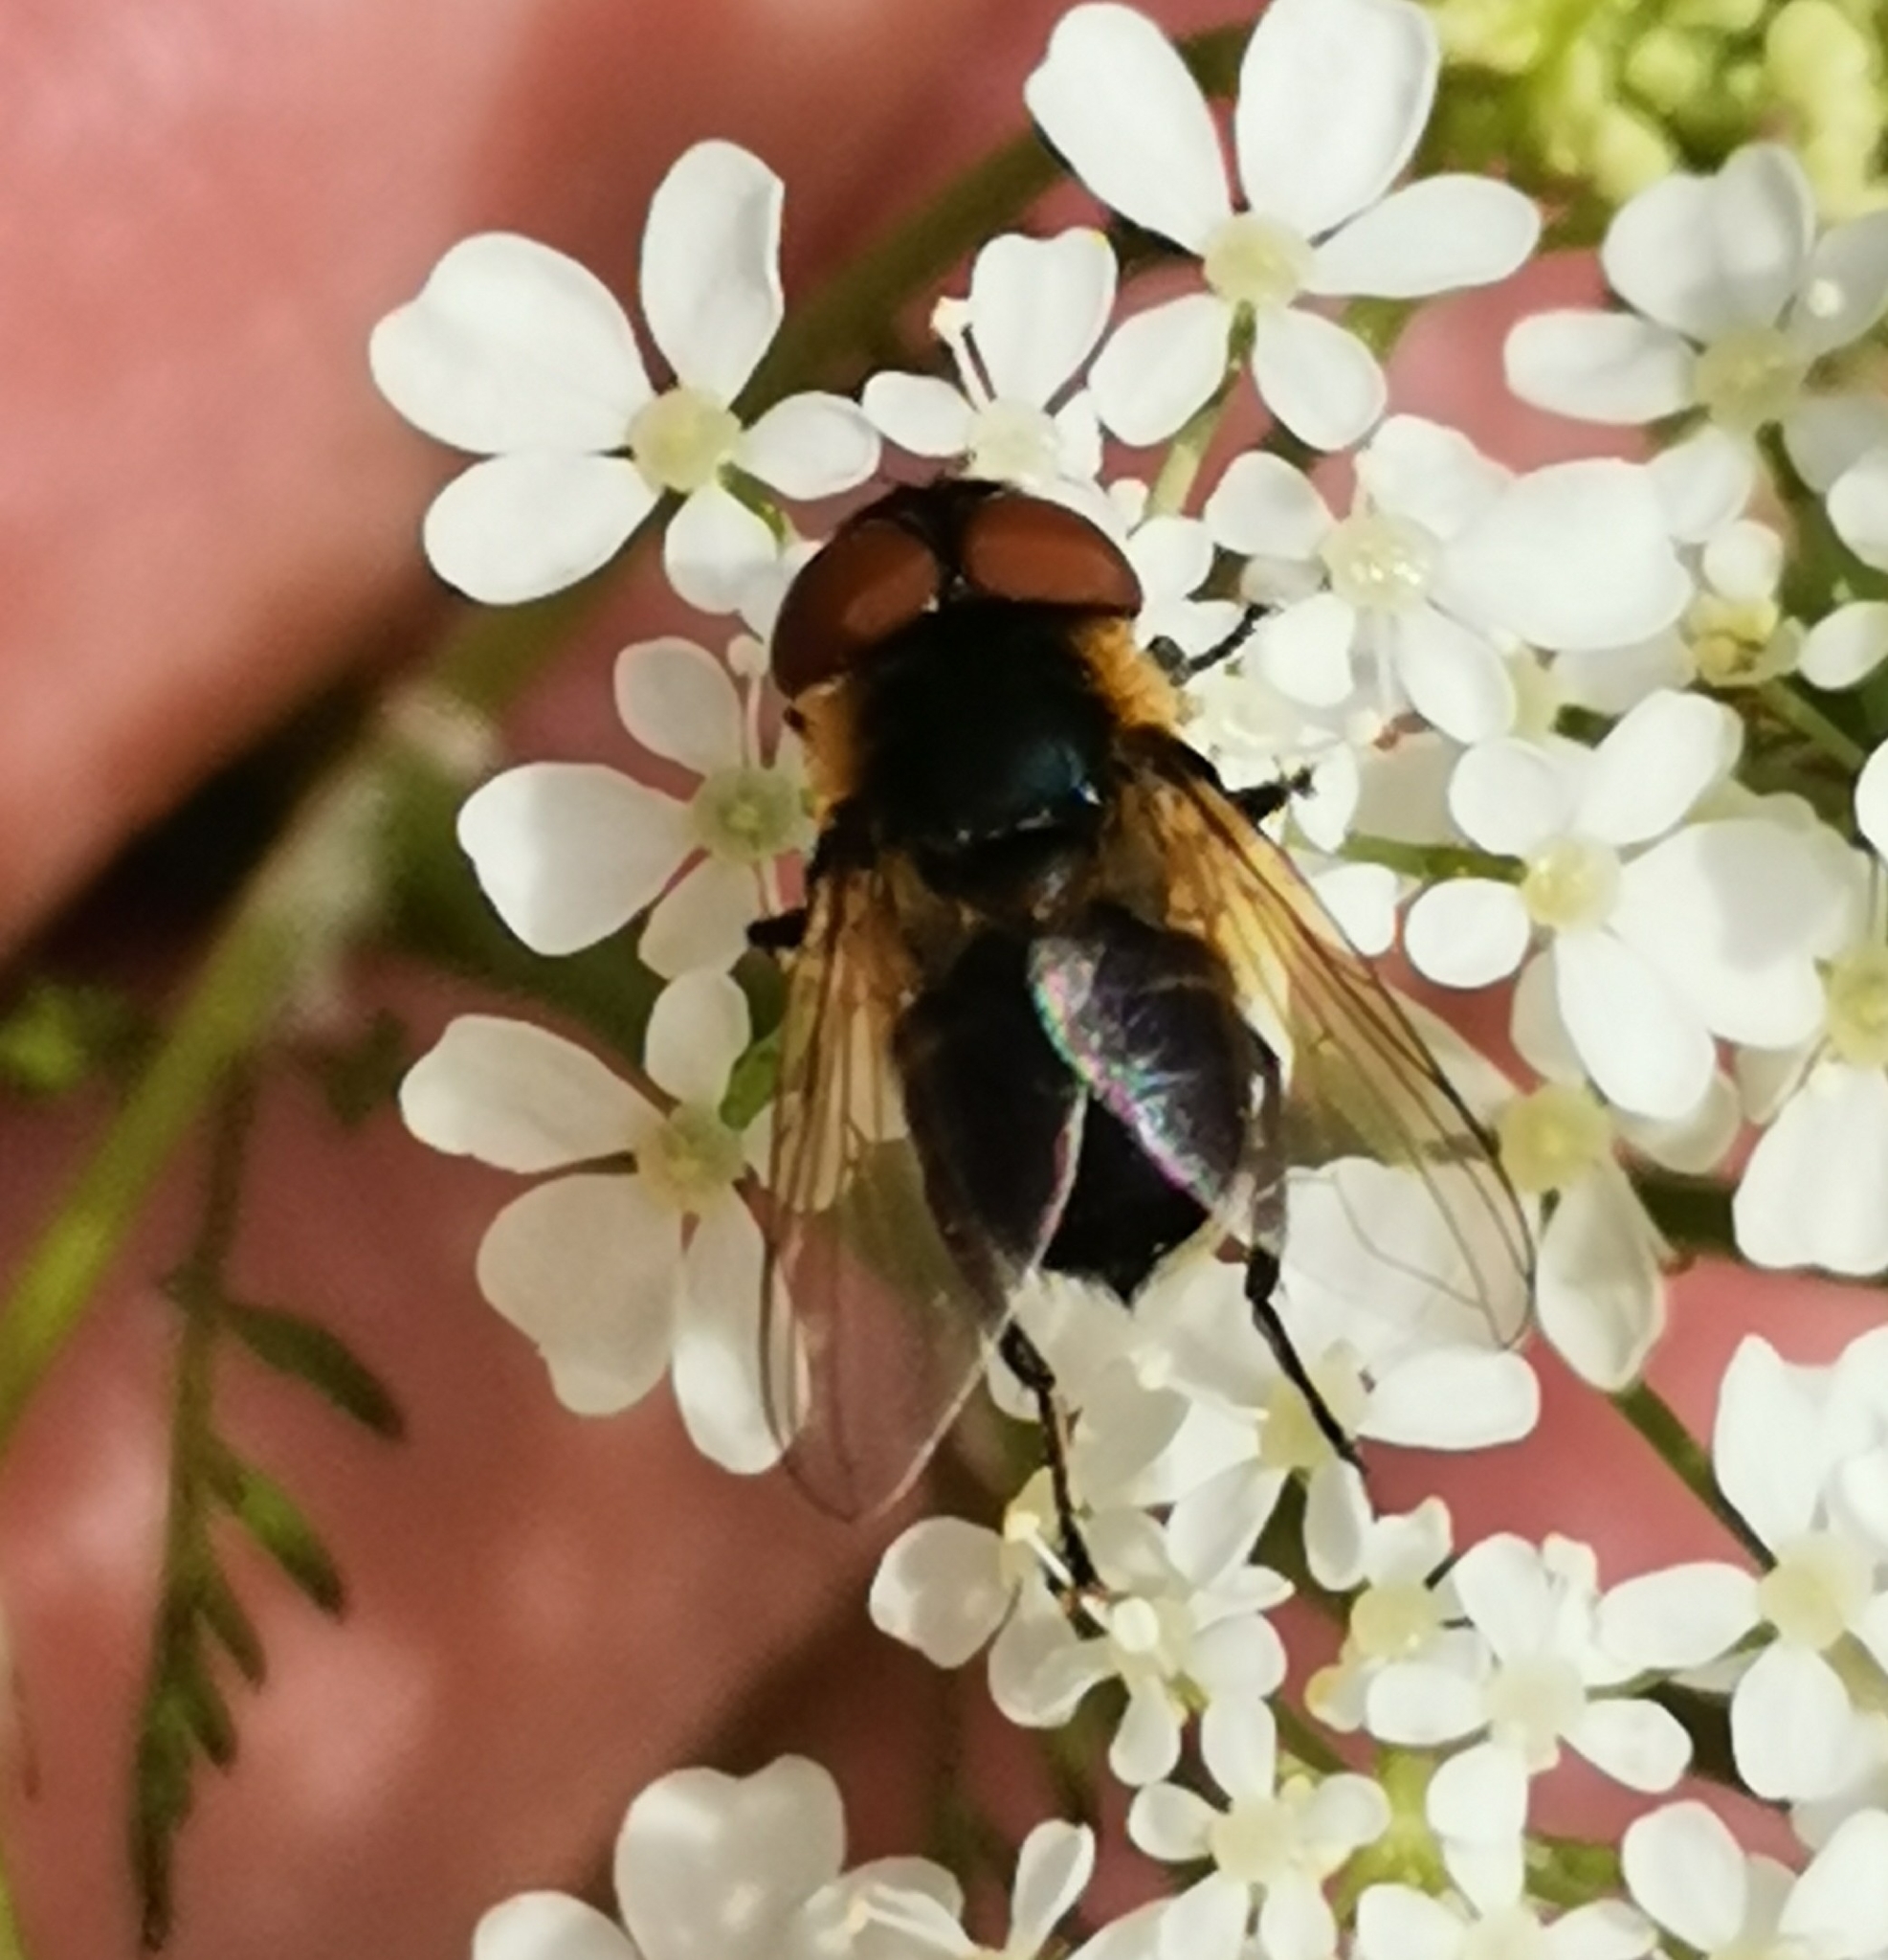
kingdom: Animalia
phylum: Arthropoda
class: Insecta
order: Diptera
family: Tachinidae
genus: Phasia
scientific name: Phasia hemiptera
